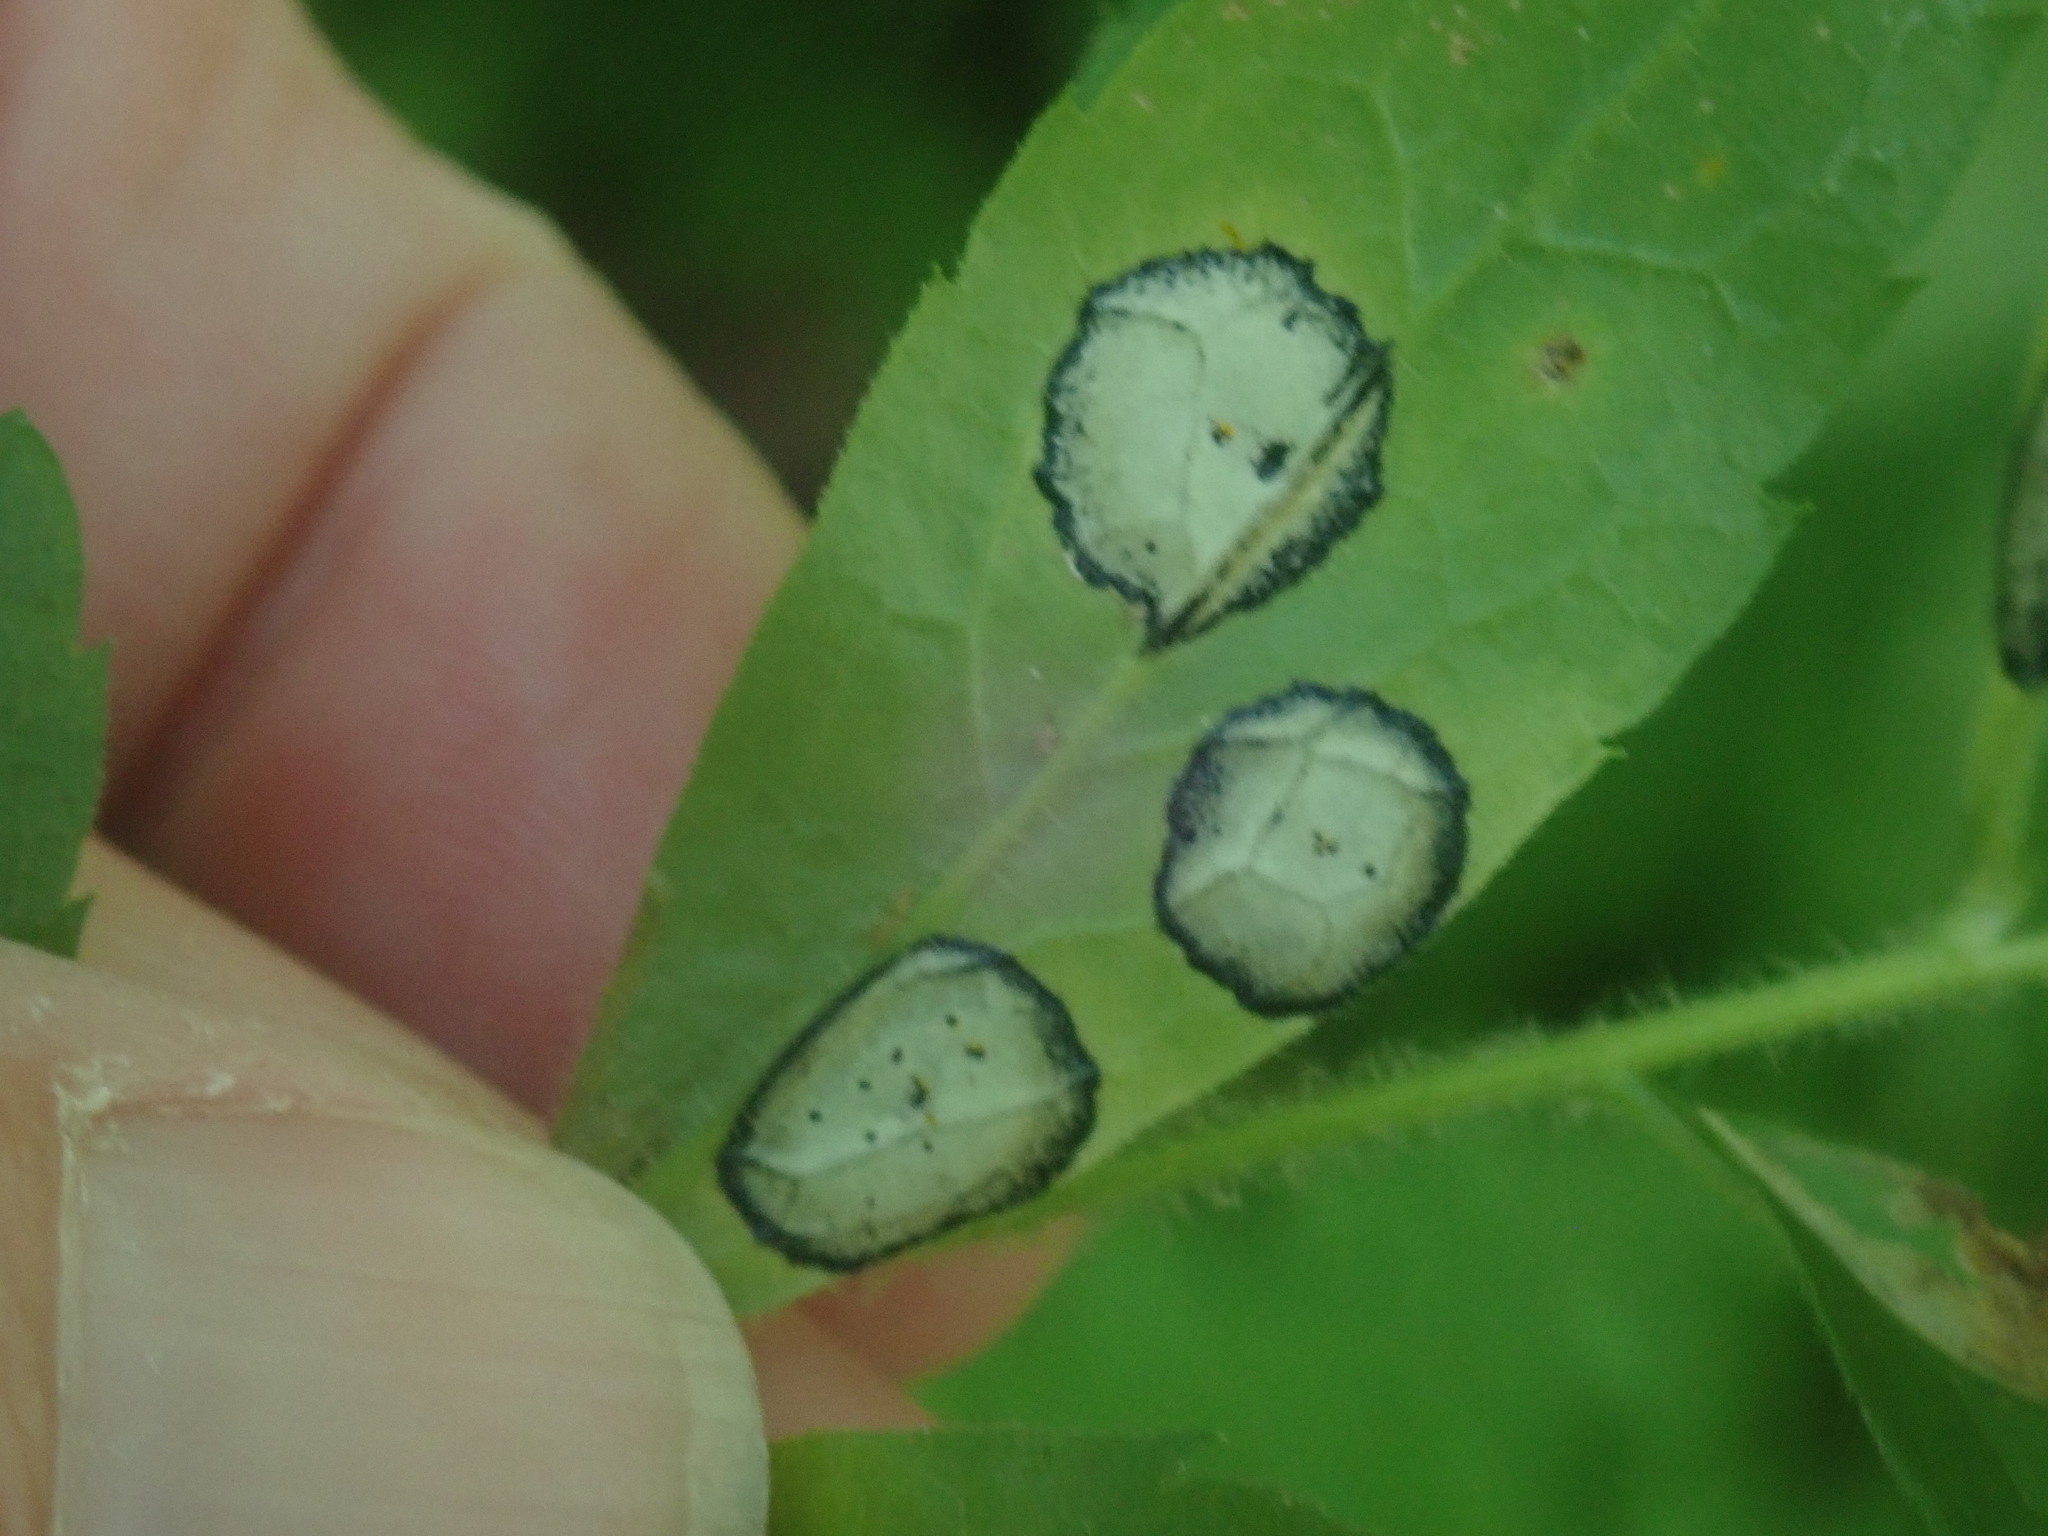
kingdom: Animalia
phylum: Arthropoda
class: Insecta
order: Diptera
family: Cecidomyiidae
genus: Asteromyia
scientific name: Asteromyia carbonifera
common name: Carbonifera goldenrod gall midge
